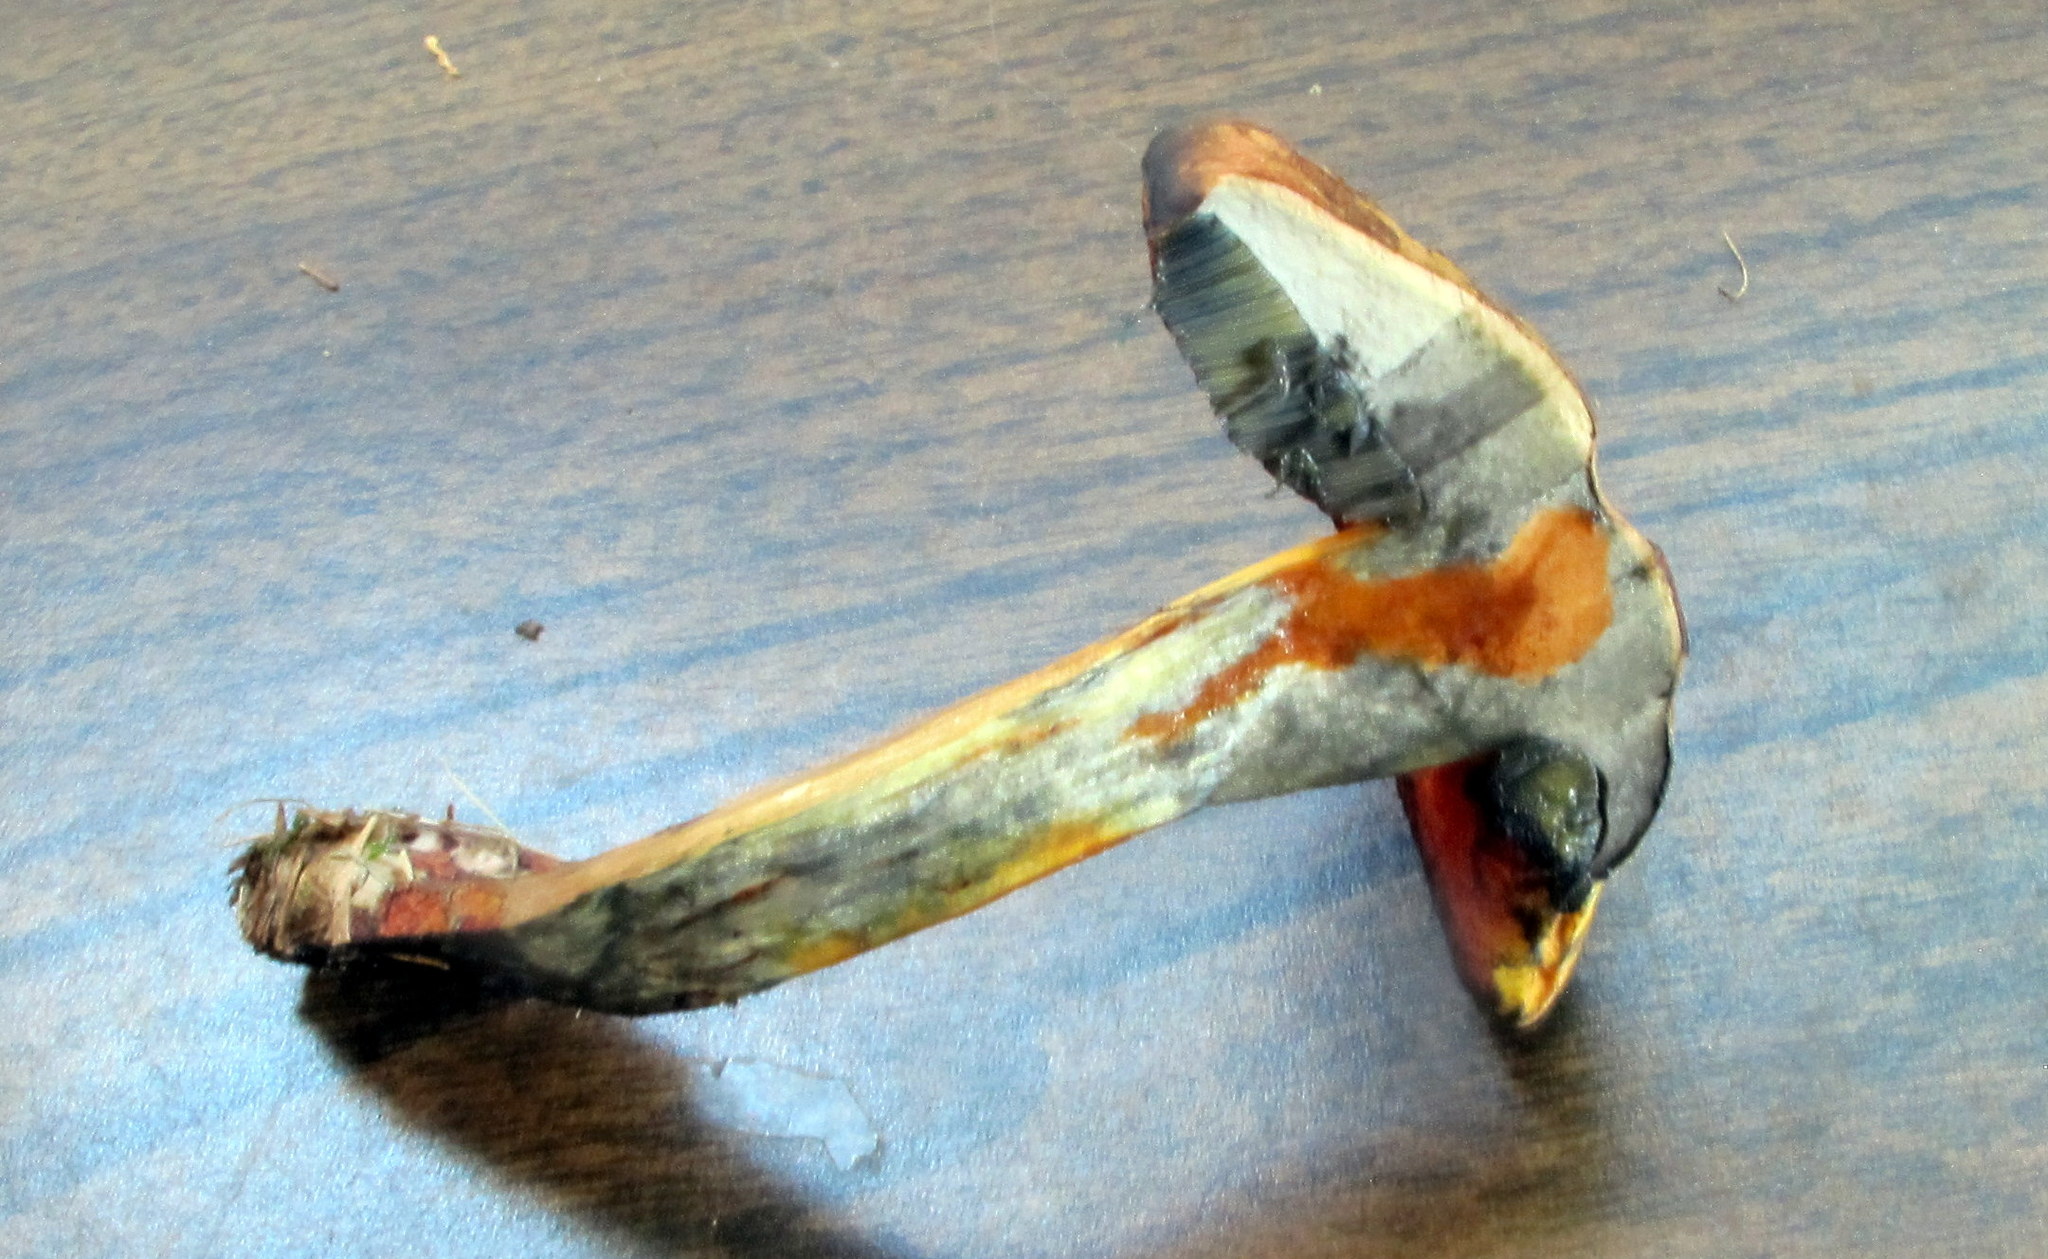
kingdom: Fungi
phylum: Basidiomycota
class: Agaricomycetes
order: Boletales
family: Boletaceae
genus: Boletus
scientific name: Boletus subvelutipes
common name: Red-mouth bolete
